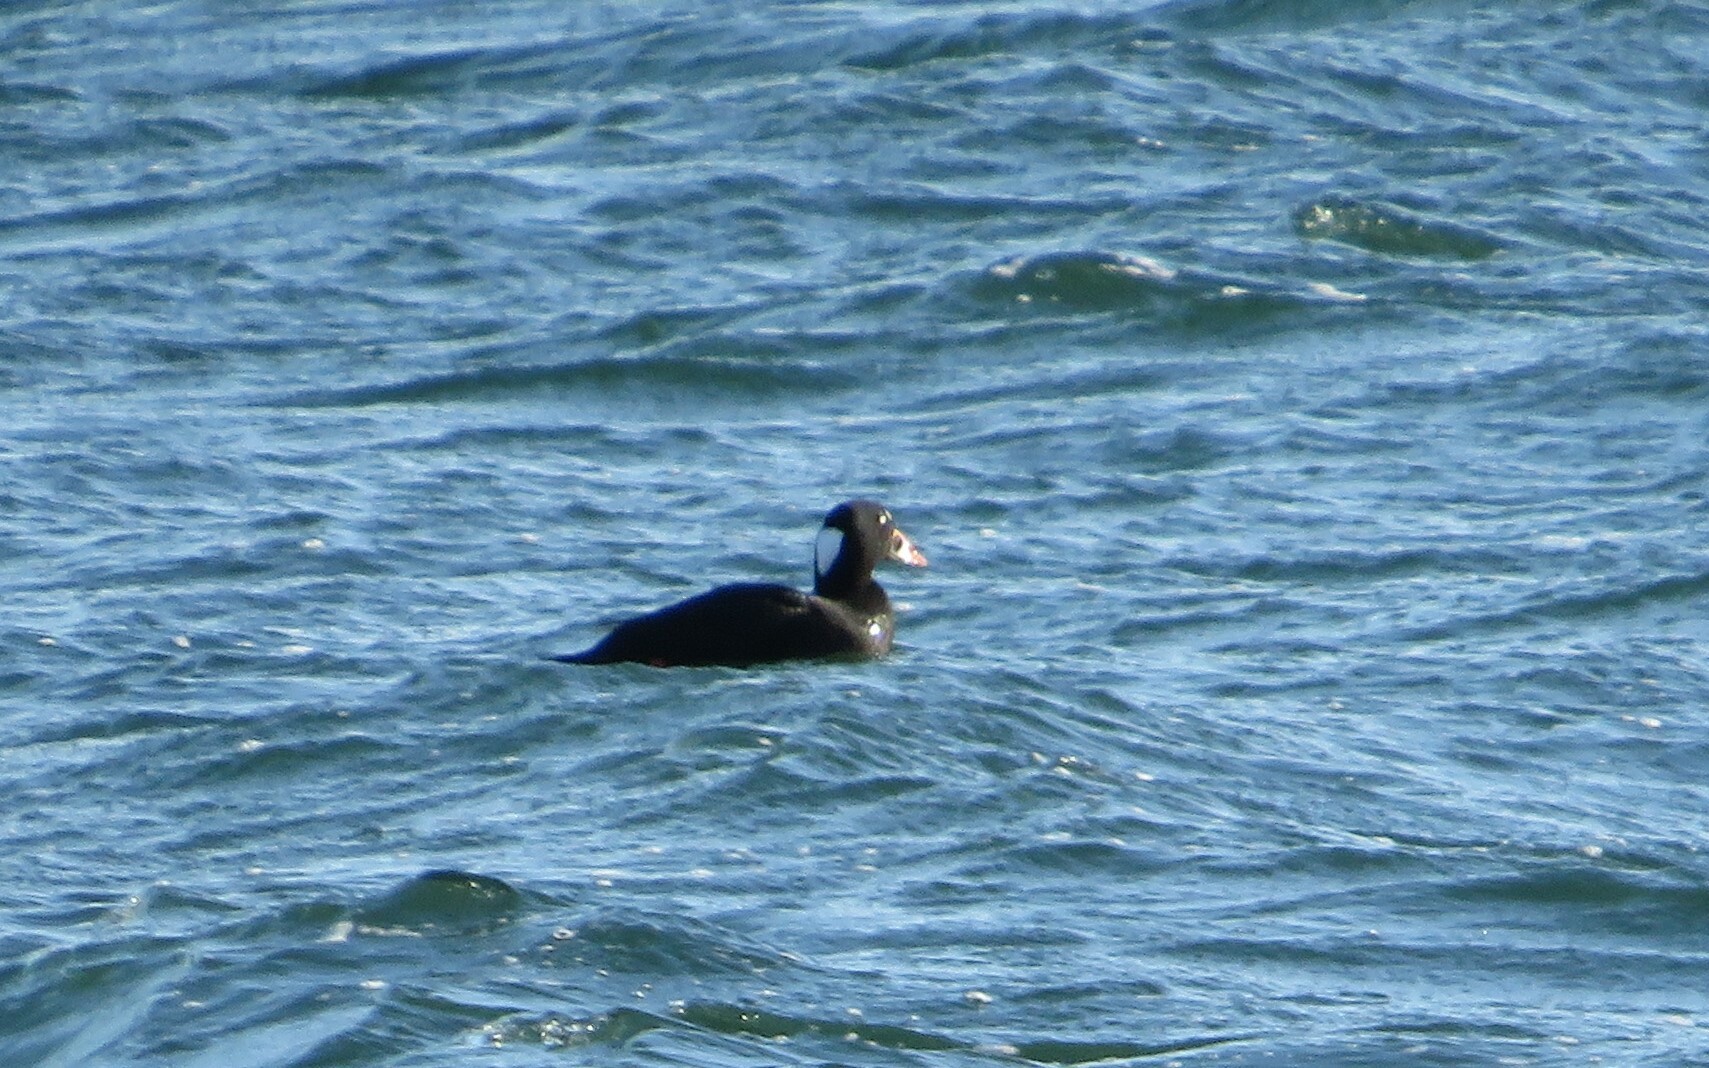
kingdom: Animalia
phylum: Chordata
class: Aves
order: Anseriformes
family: Anatidae
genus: Melanitta
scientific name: Melanitta perspicillata
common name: Surf scoter
